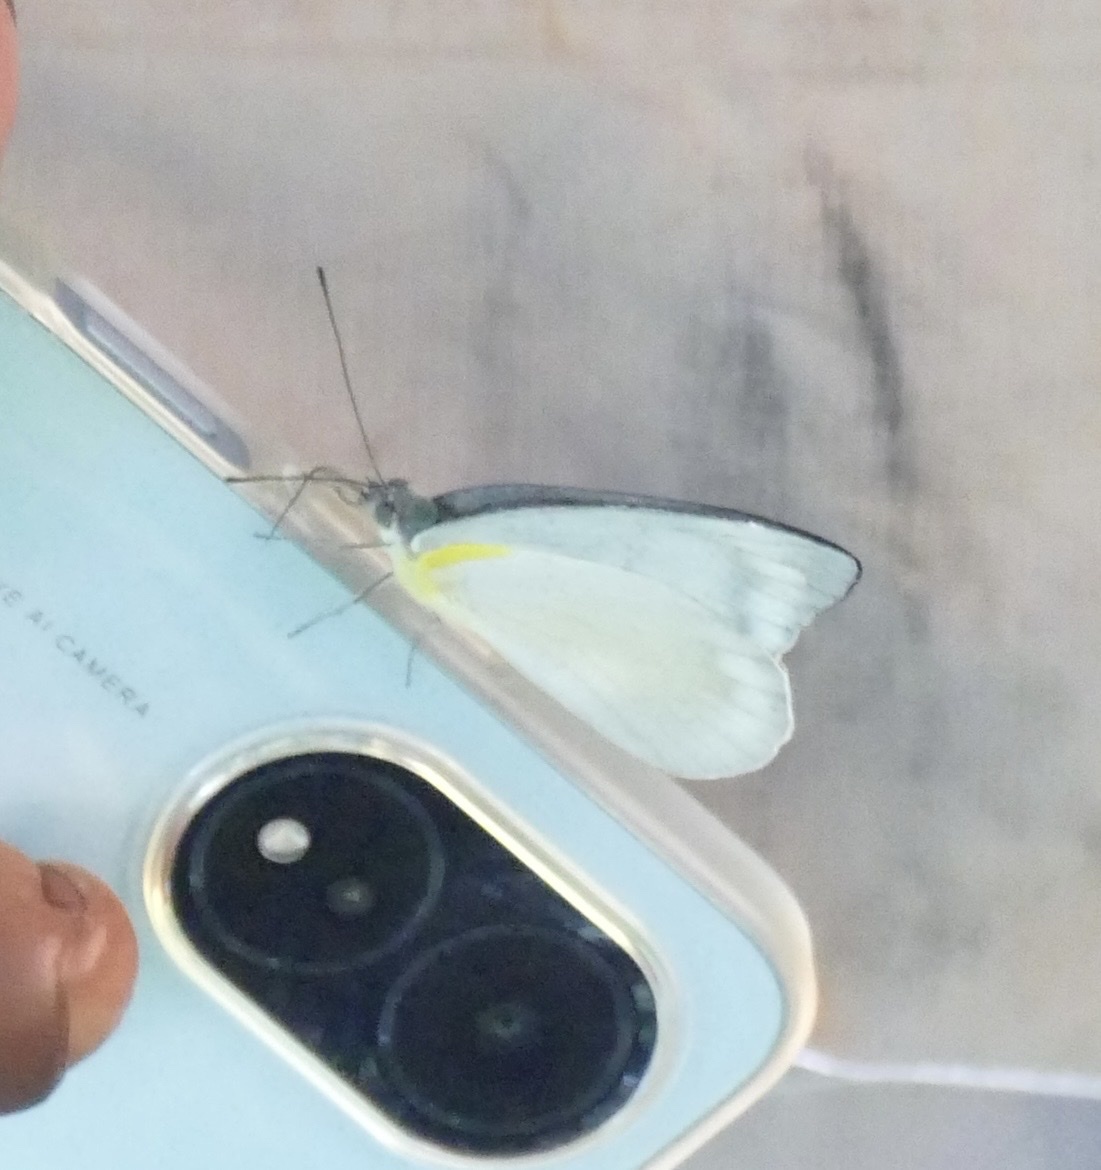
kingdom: Animalia
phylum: Arthropoda
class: Insecta
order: Lepidoptera
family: Pieridae
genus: Appias
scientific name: Appias celestina
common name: Common migrant
